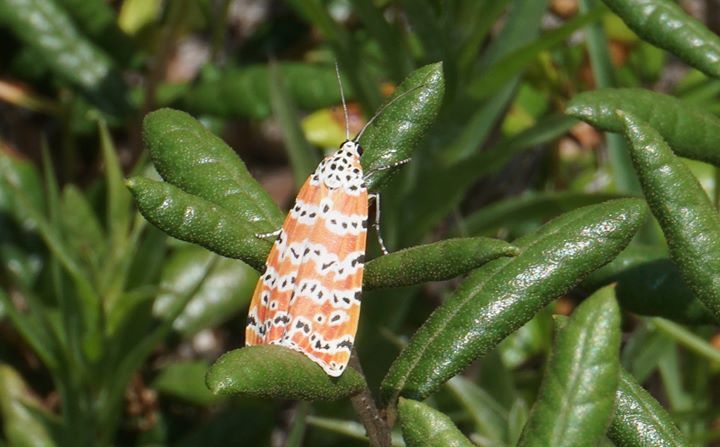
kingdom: Animalia
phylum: Arthropoda
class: Insecta
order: Lepidoptera
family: Erebidae
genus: Utetheisa
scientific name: Utetheisa ornatrix
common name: Beautiful utetheisa
